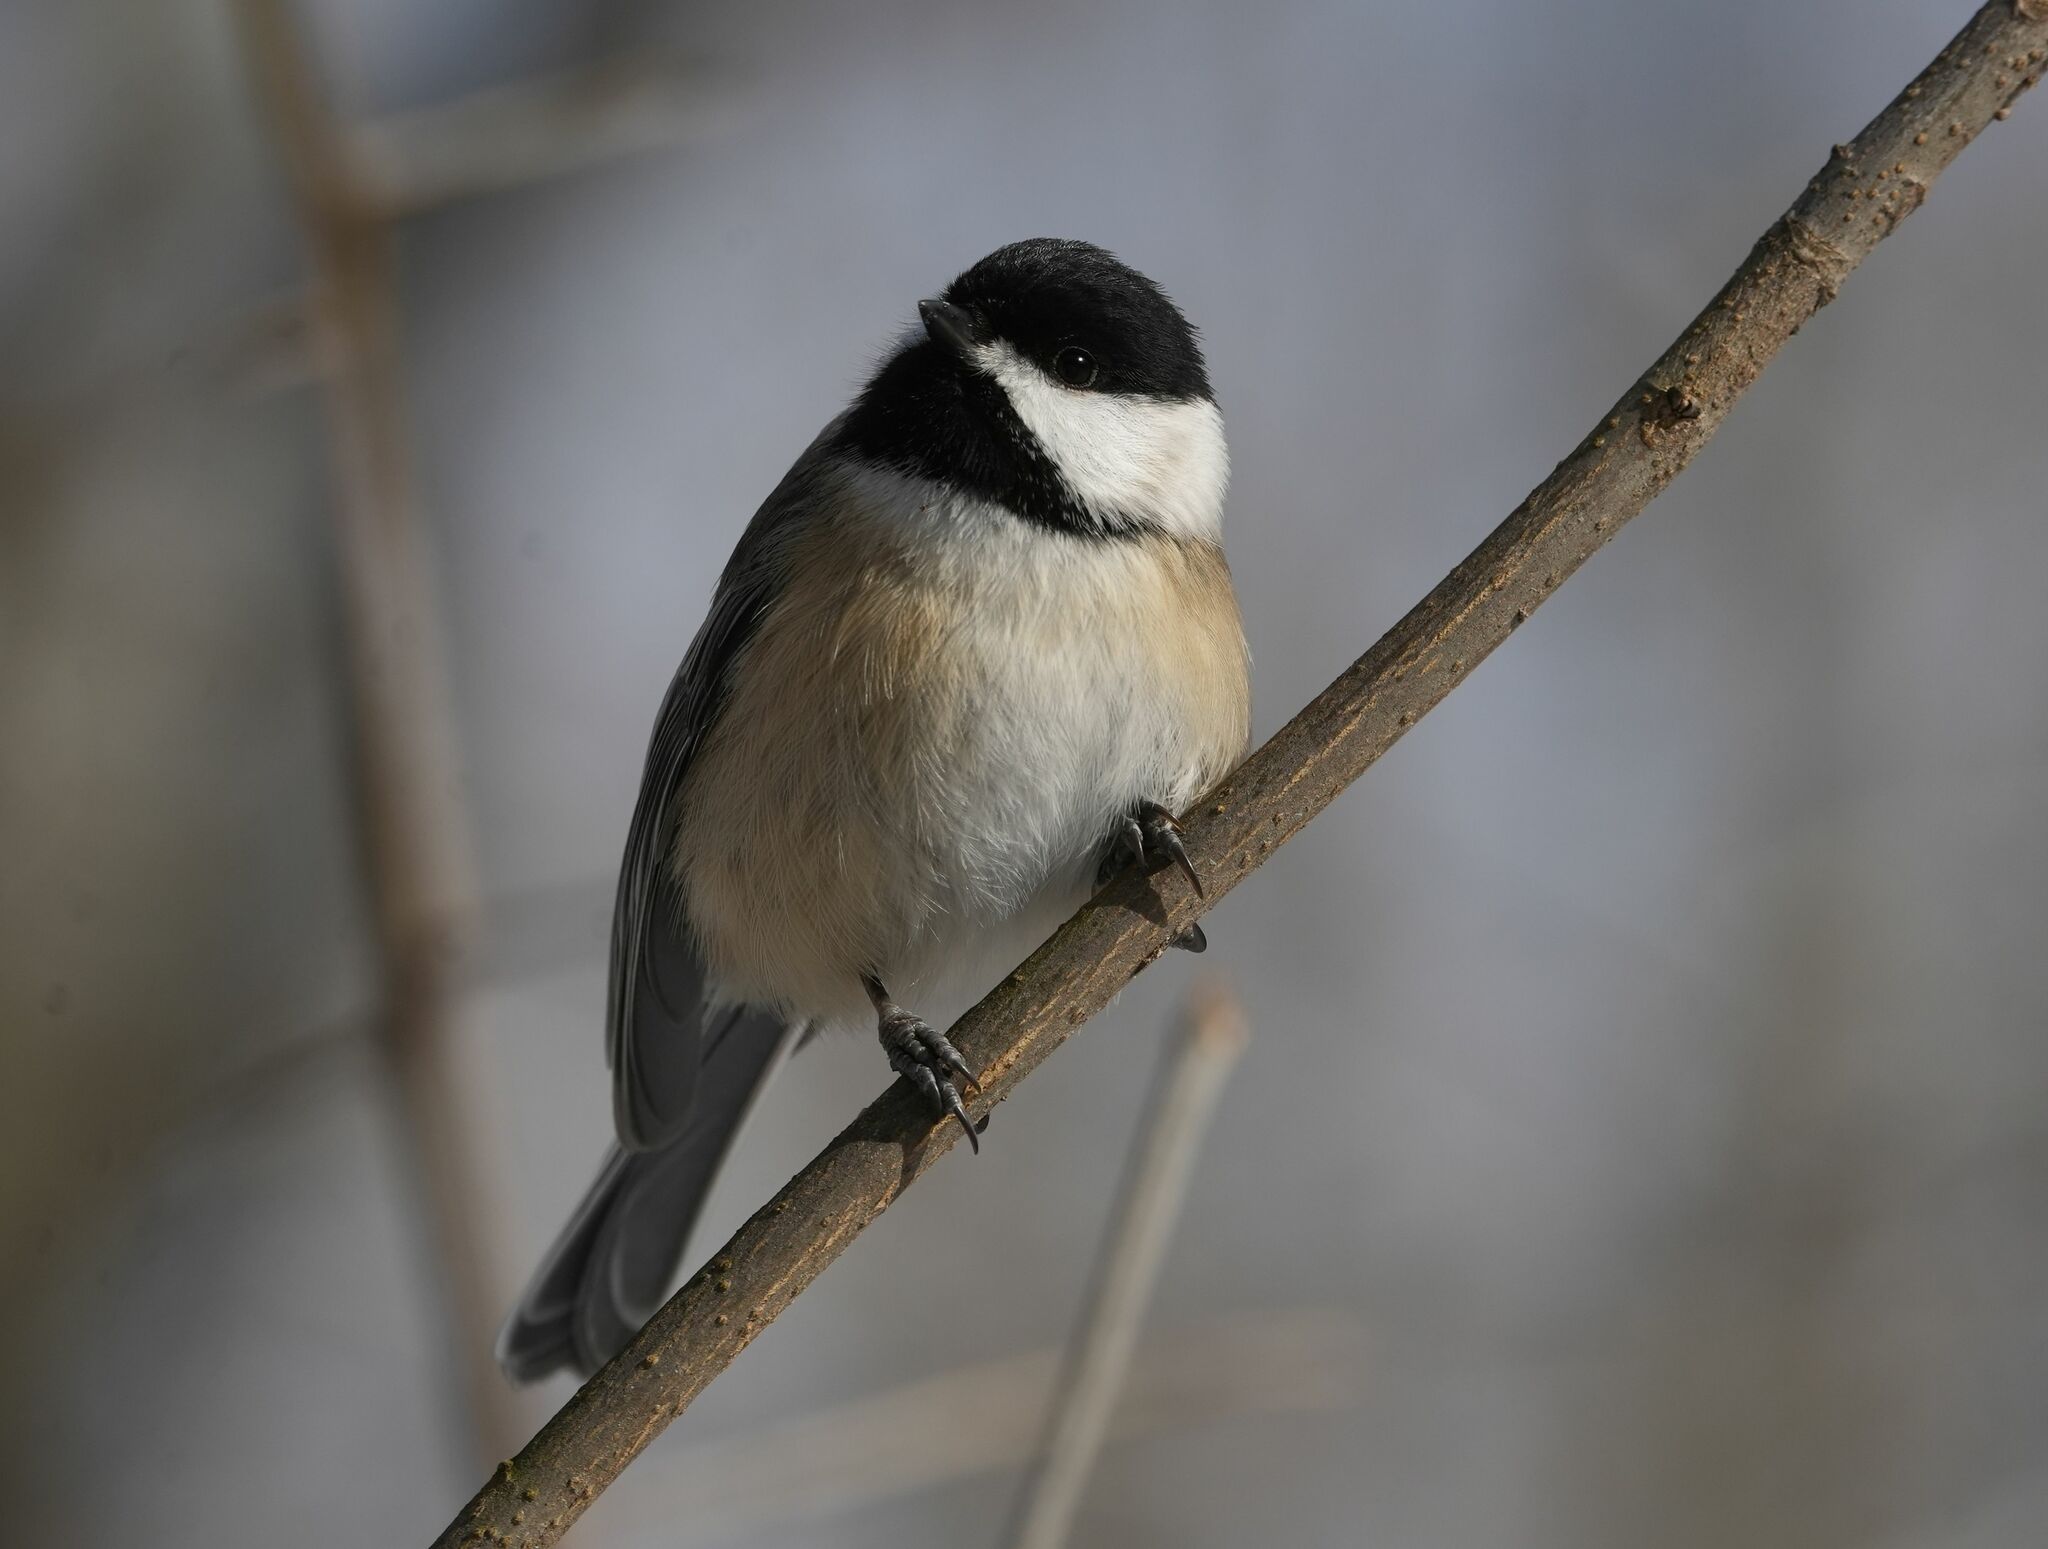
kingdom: Animalia
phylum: Chordata
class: Aves
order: Passeriformes
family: Paridae
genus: Poecile
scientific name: Poecile atricapillus
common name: Black-capped chickadee
